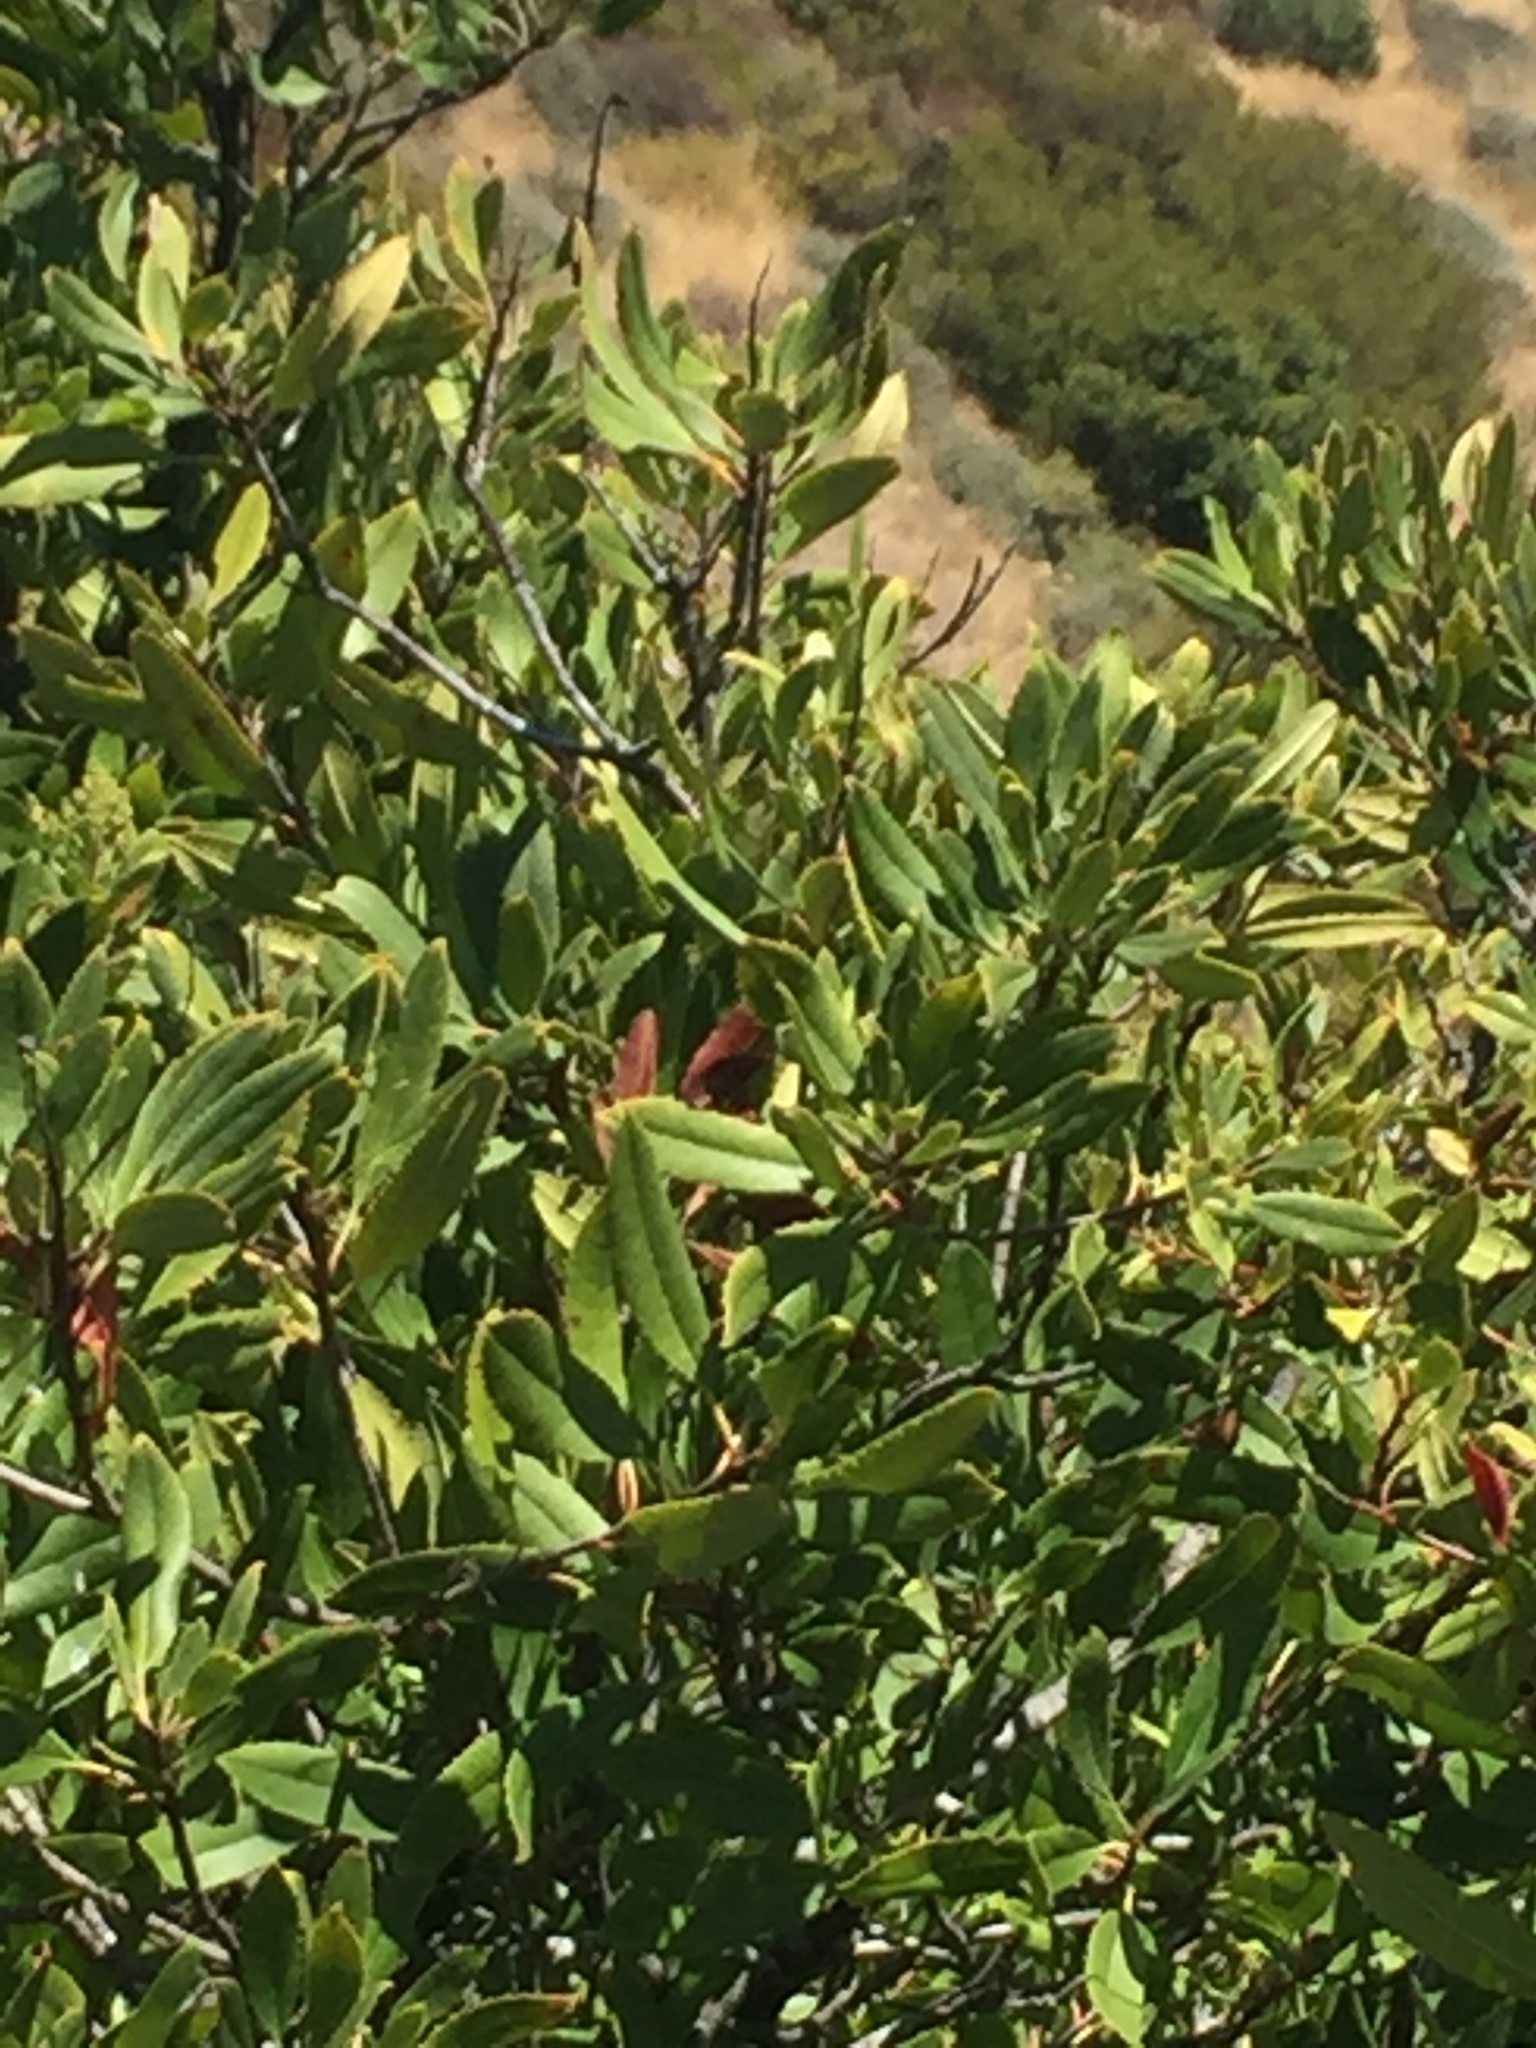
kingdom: Plantae
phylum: Tracheophyta
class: Magnoliopsida
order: Rosales
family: Rosaceae
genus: Heteromeles
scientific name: Heteromeles arbutifolia
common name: California-holly
